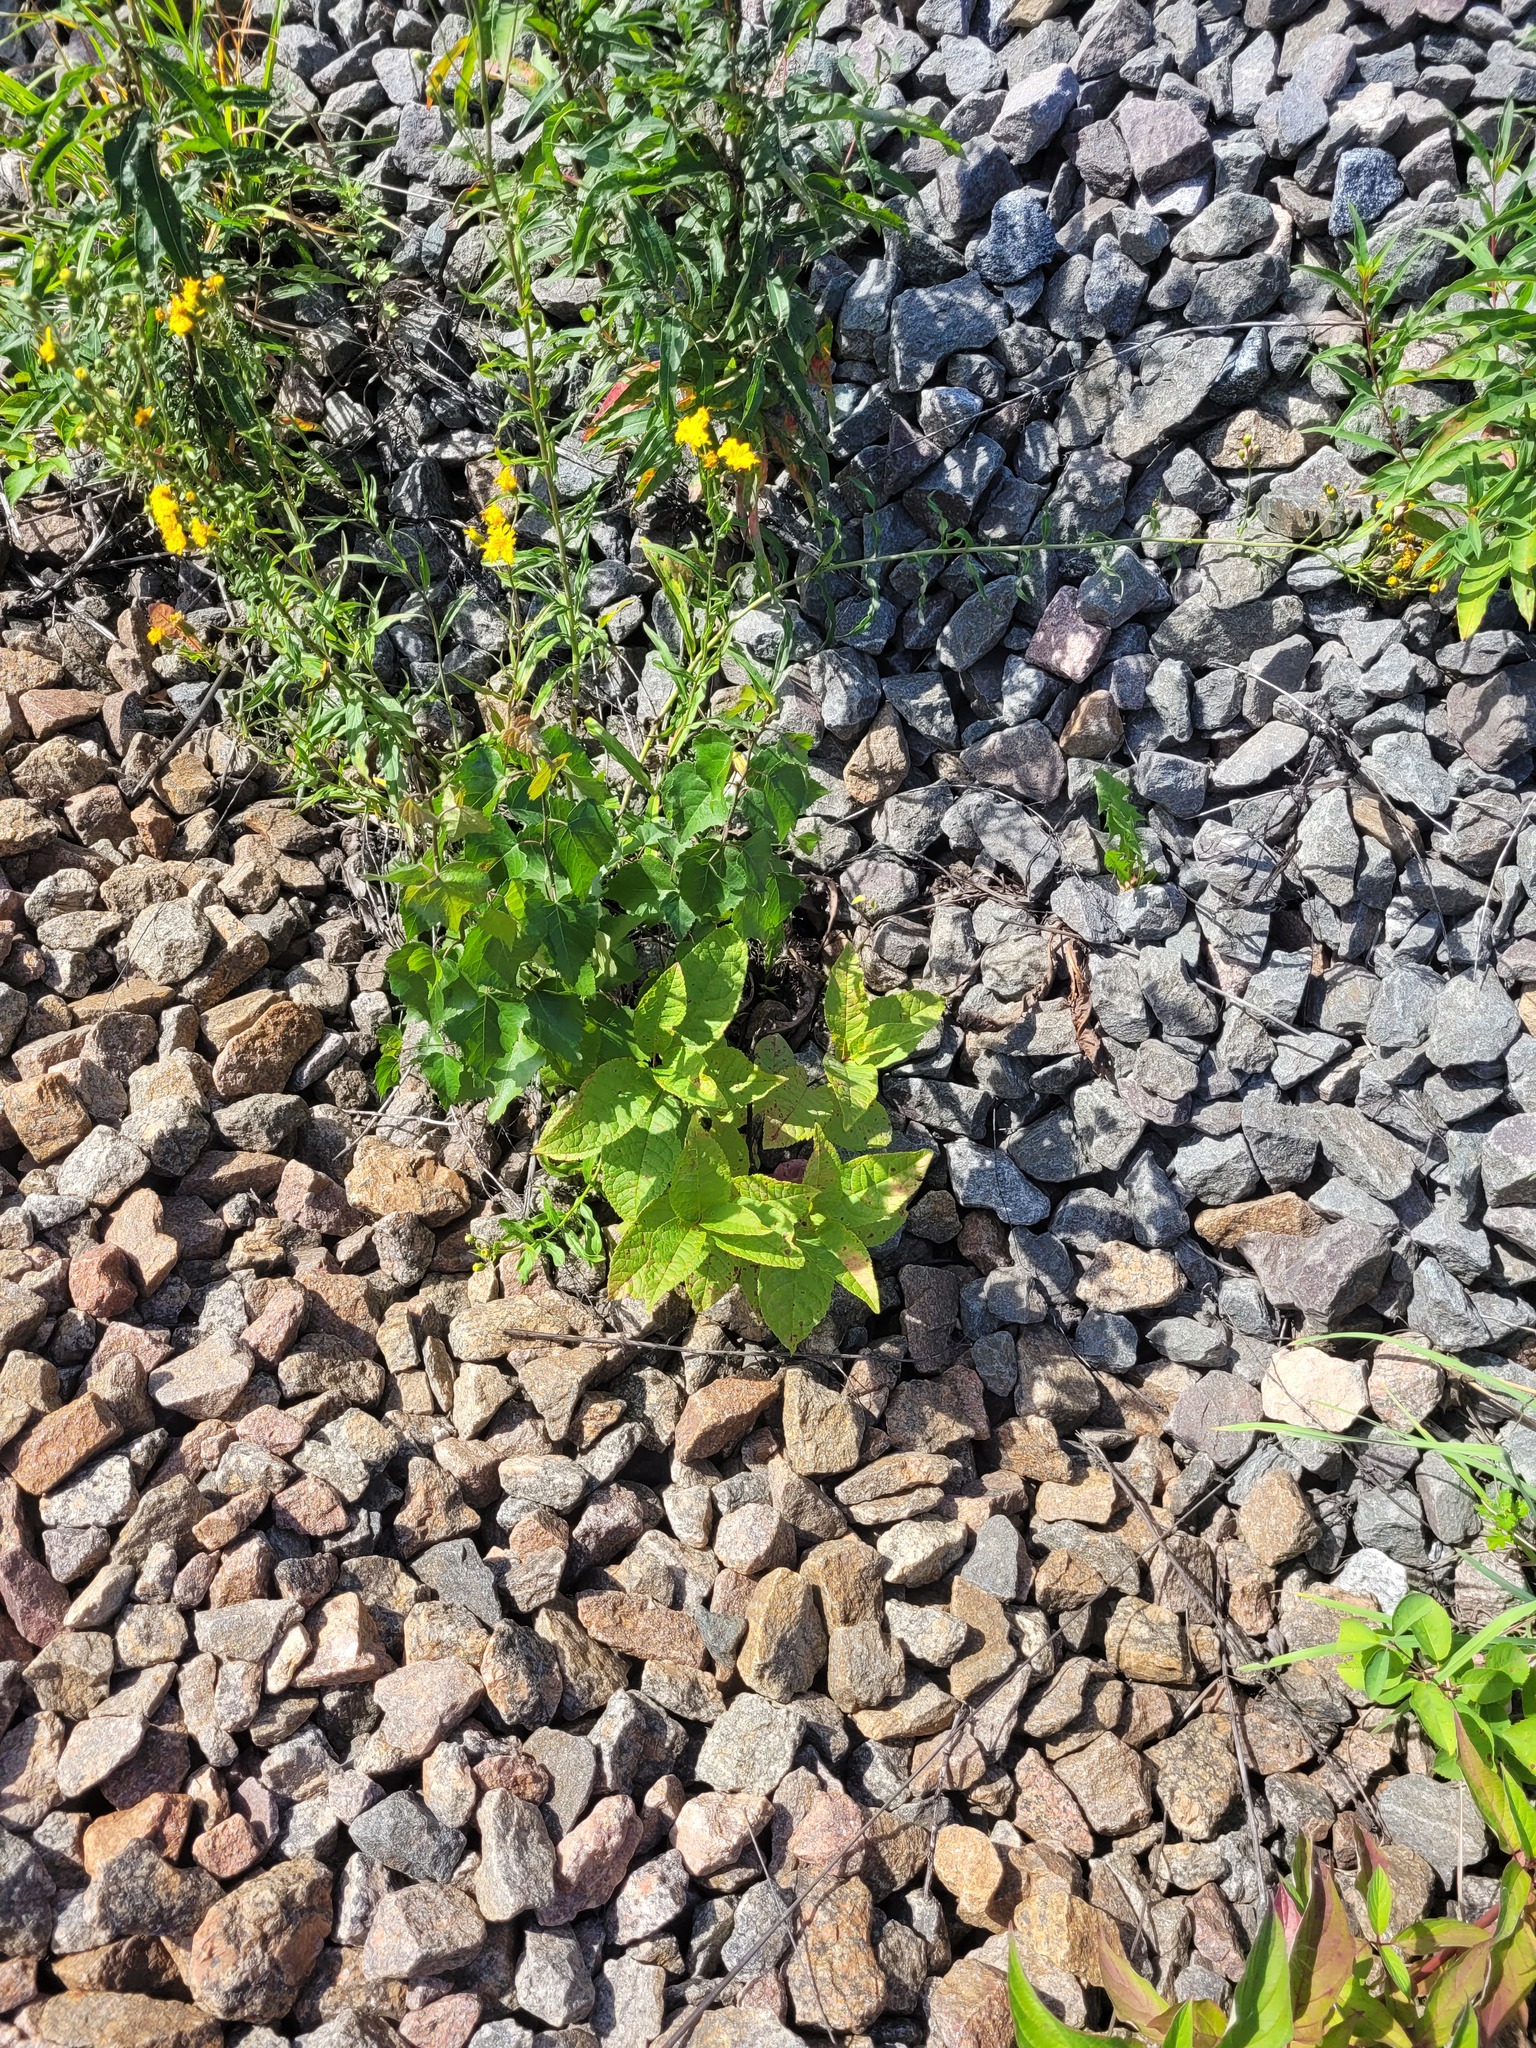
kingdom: Plantae
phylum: Tracheophyta
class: Magnoliopsida
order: Rosales
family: Rosaceae
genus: Prunus
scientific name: Prunus padus
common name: Bird cherry
